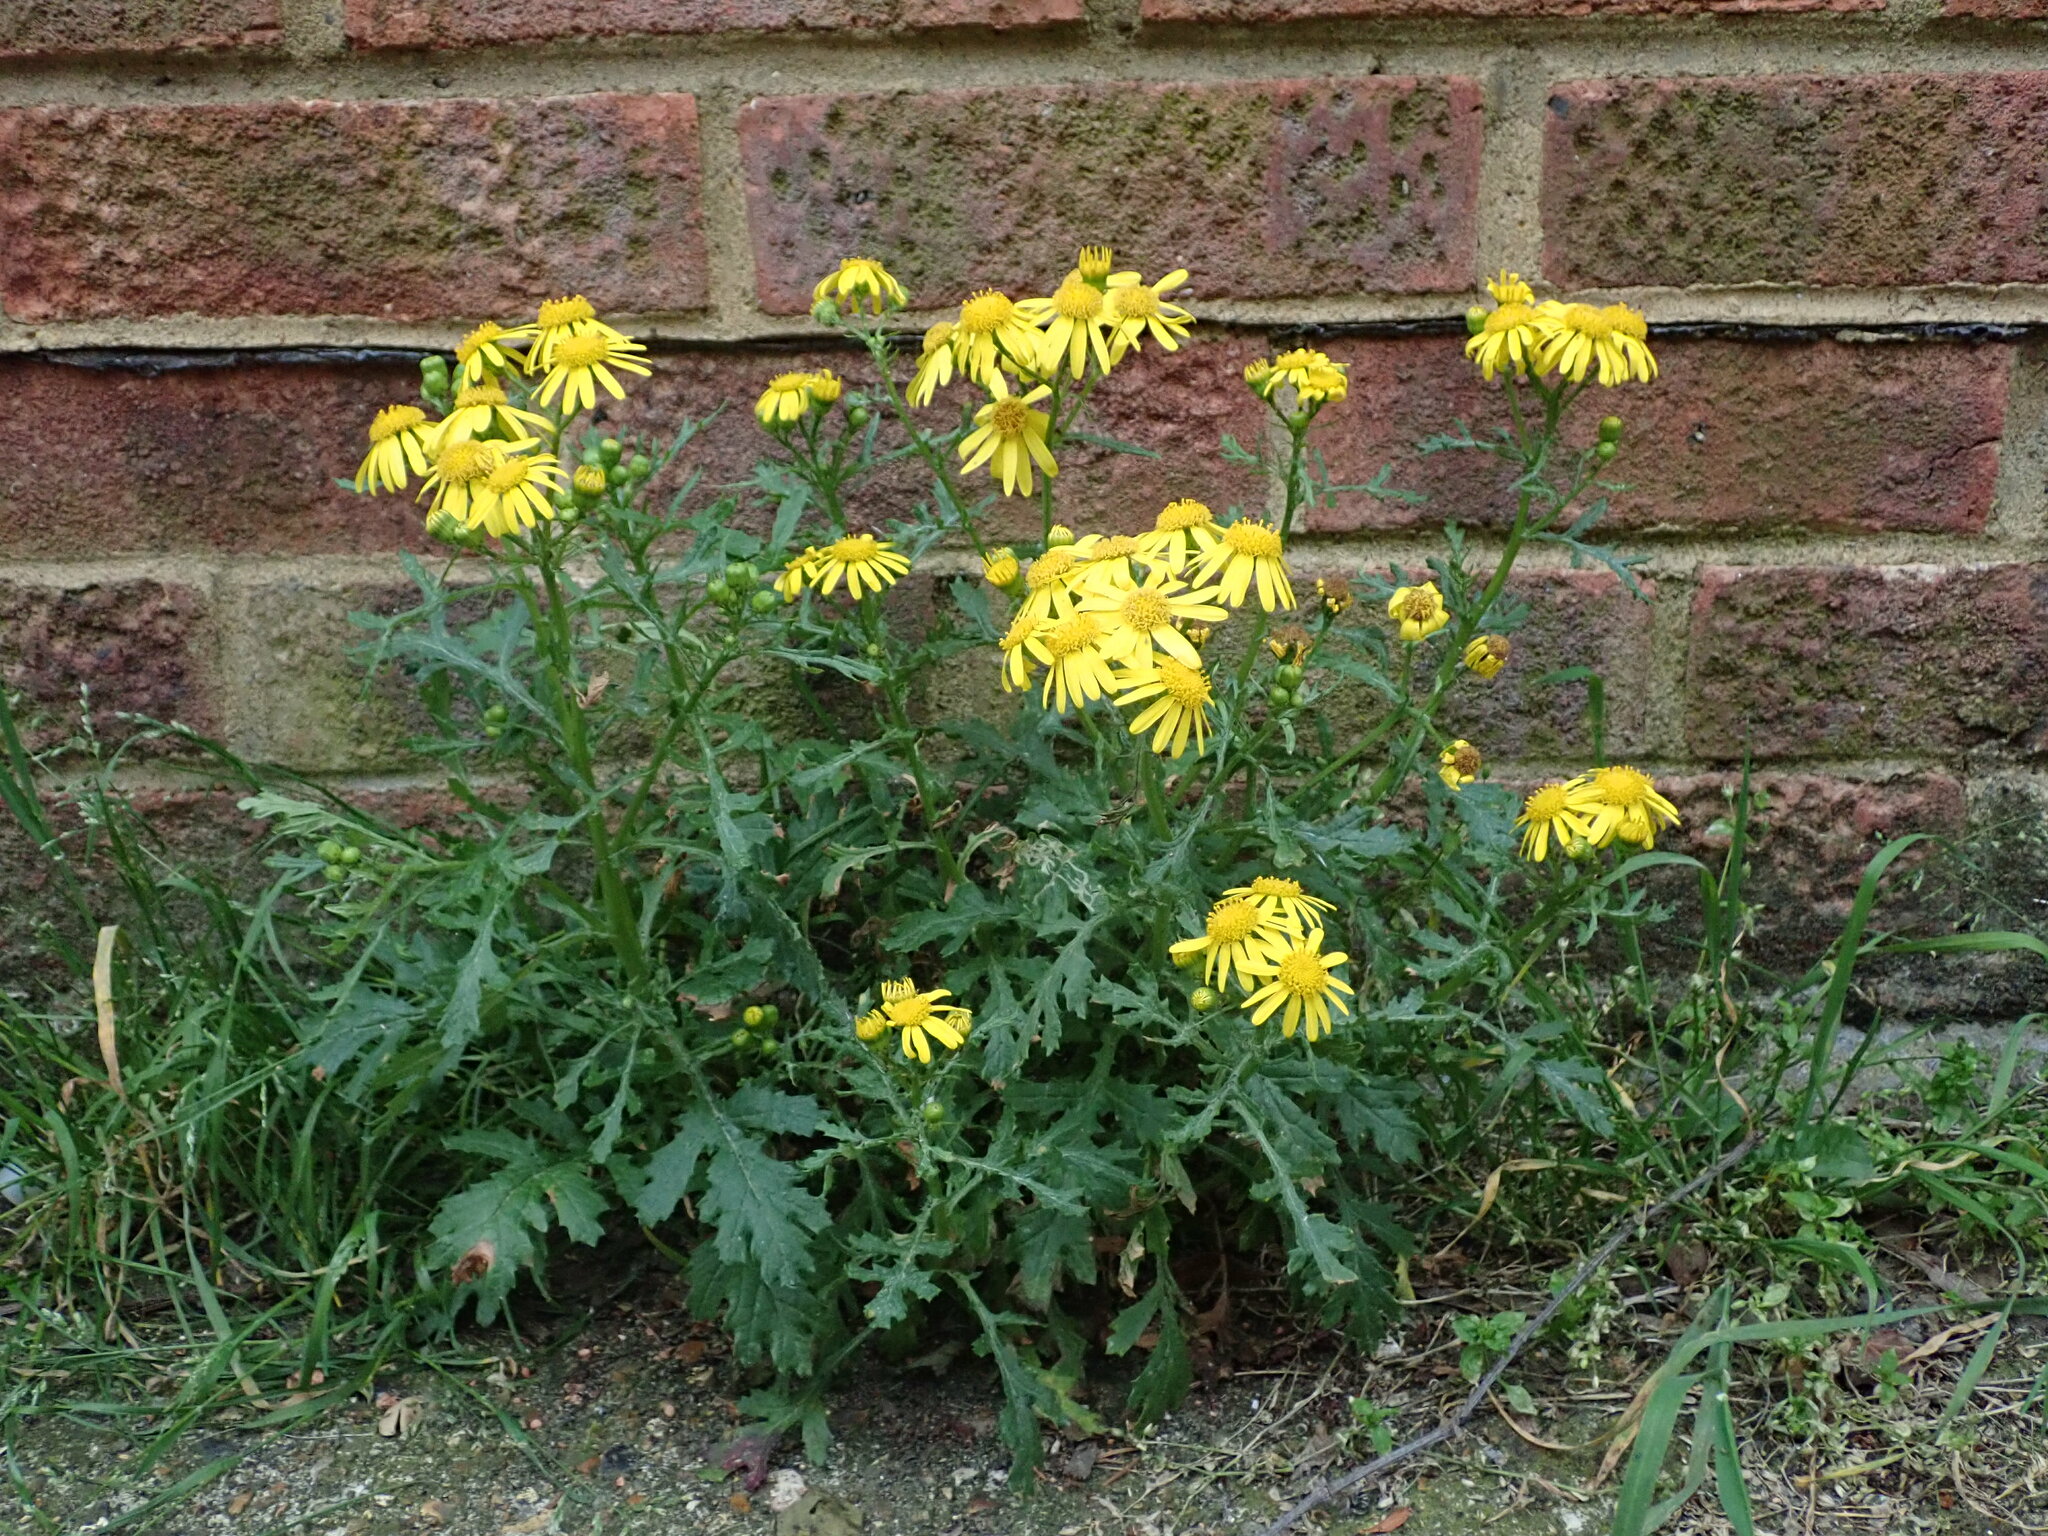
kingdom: Plantae
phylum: Tracheophyta
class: Magnoliopsida
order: Asterales
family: Asteraceae
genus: Senecio
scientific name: Senecio squalidus
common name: Oxford ragwort
